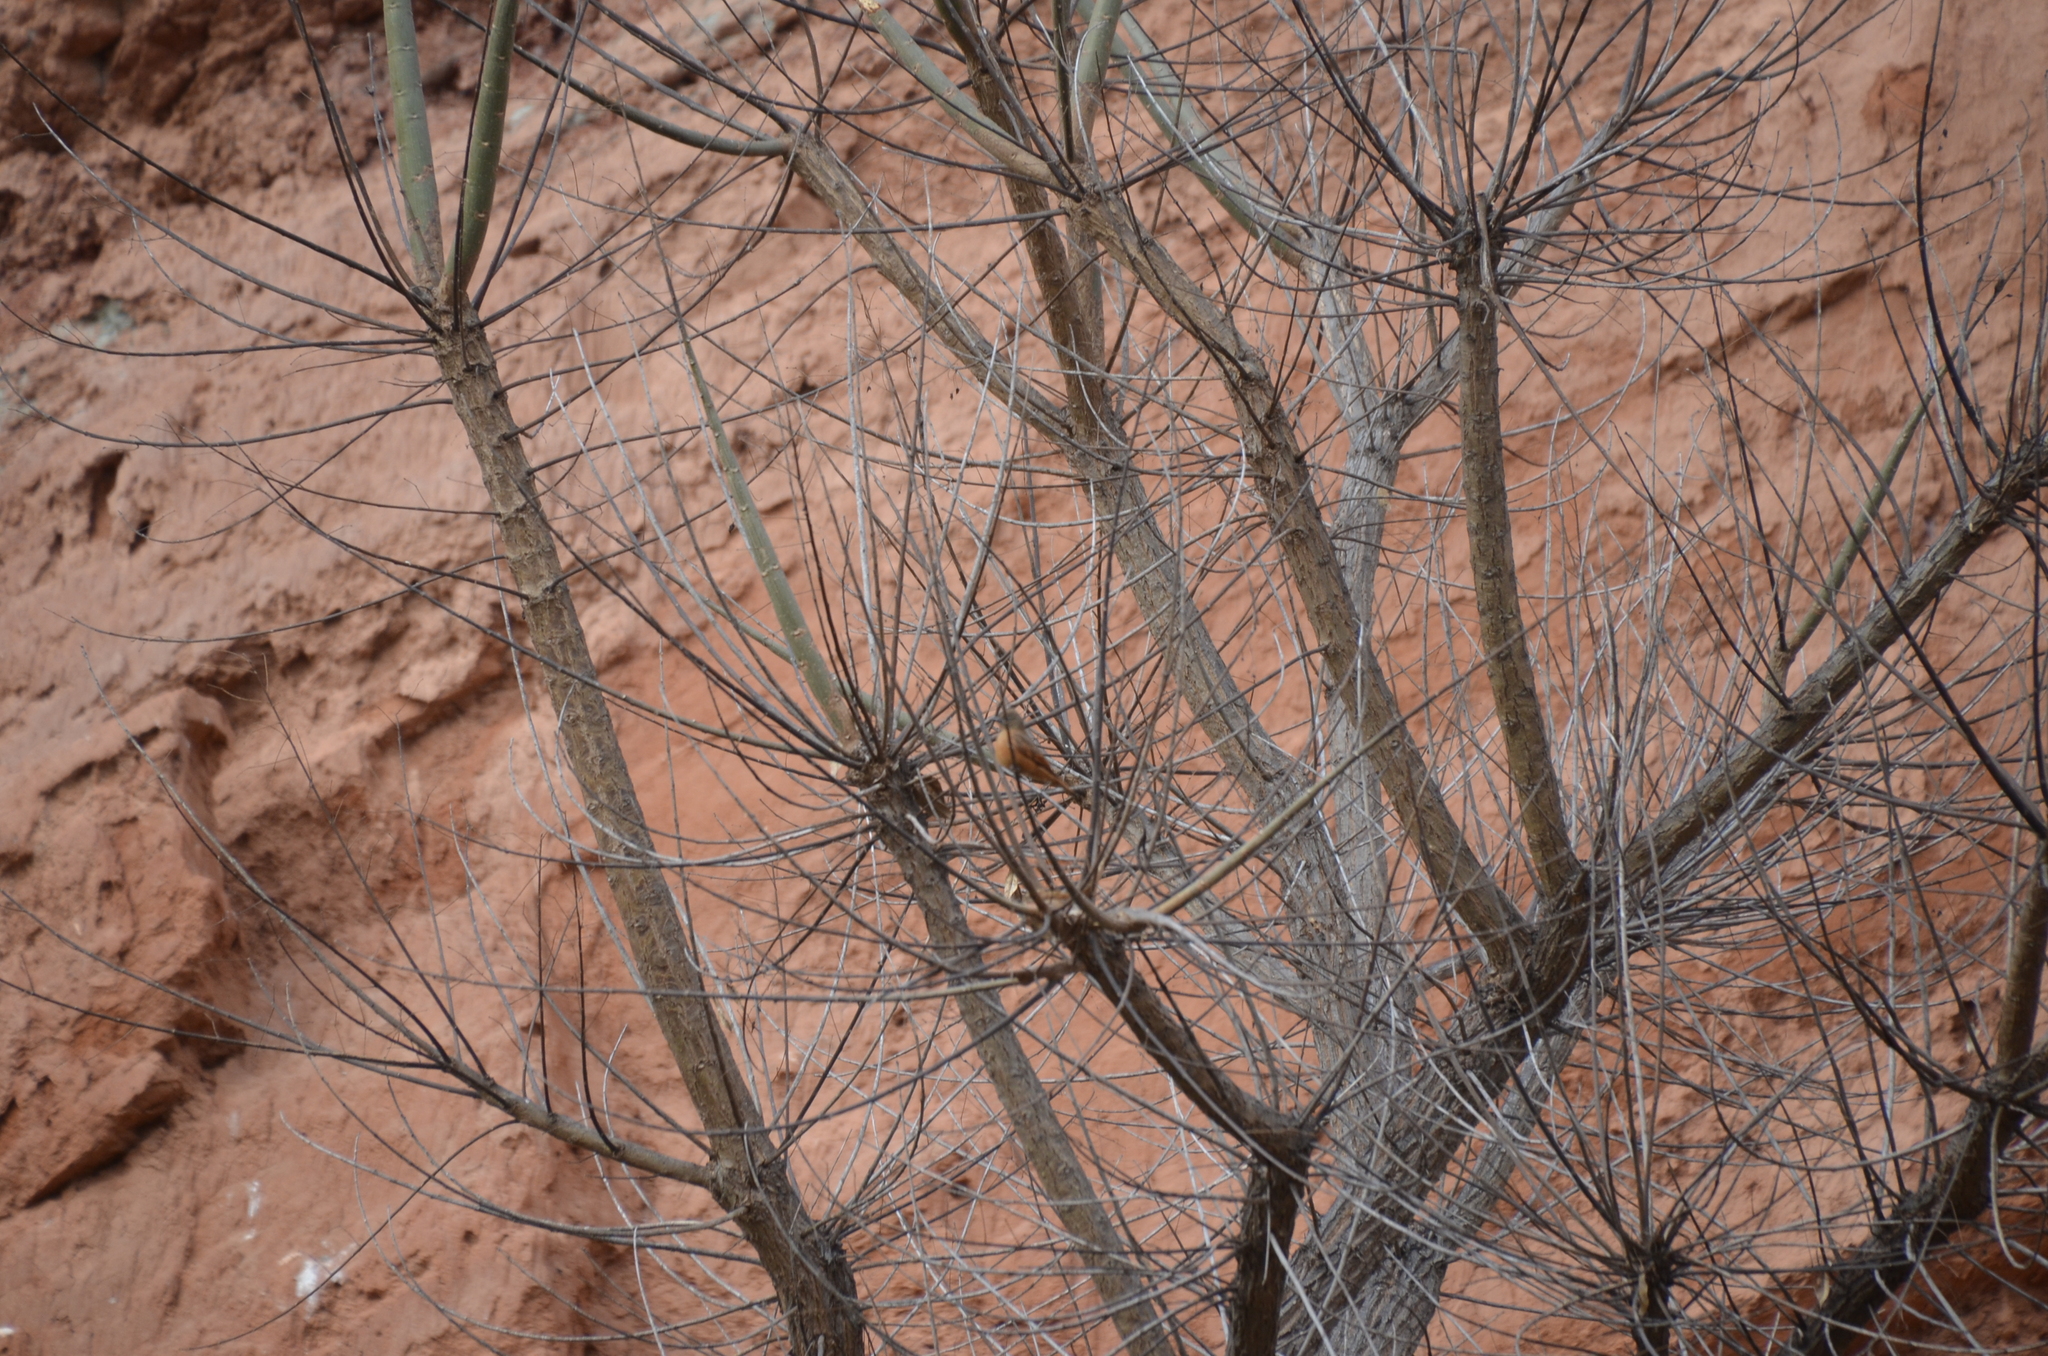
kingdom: Animalia
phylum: Chordata
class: Aves
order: Passeriformes
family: Tyrannidae
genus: Hirundinea
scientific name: Hirundinea ferruginea
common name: Cliff flycatcher
